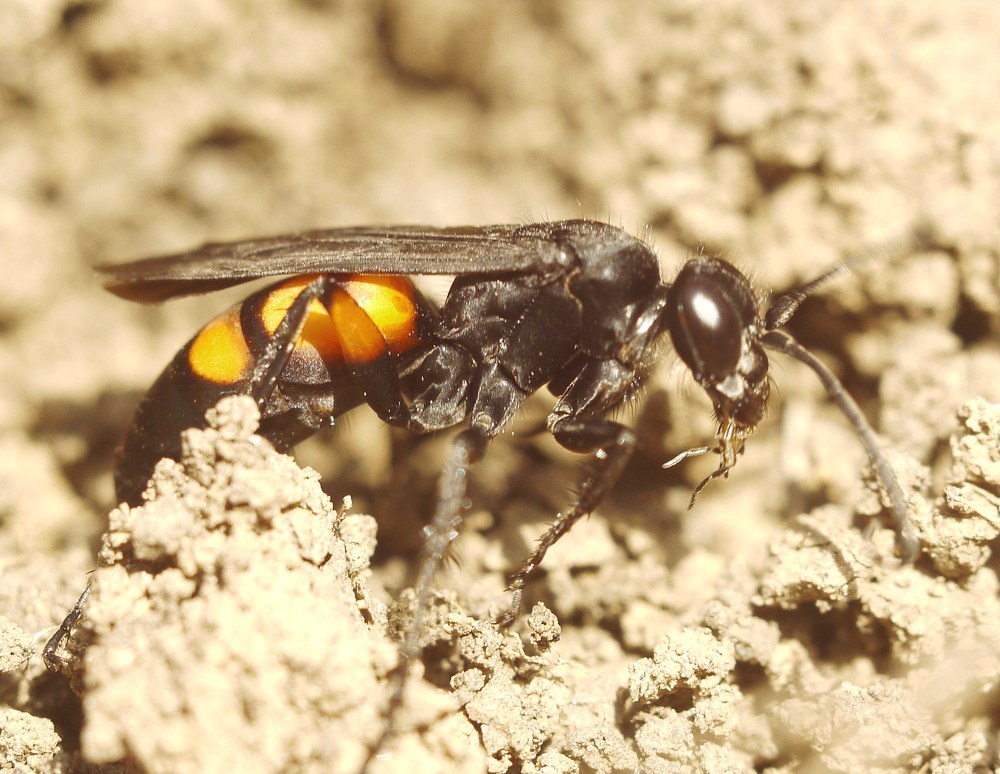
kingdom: Animalia
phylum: Arthropoda
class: Insecta
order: Hymenoptera
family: Pompilidae
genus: Anoplius
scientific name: Anoplius viaticus
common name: Black banded spider wasp
